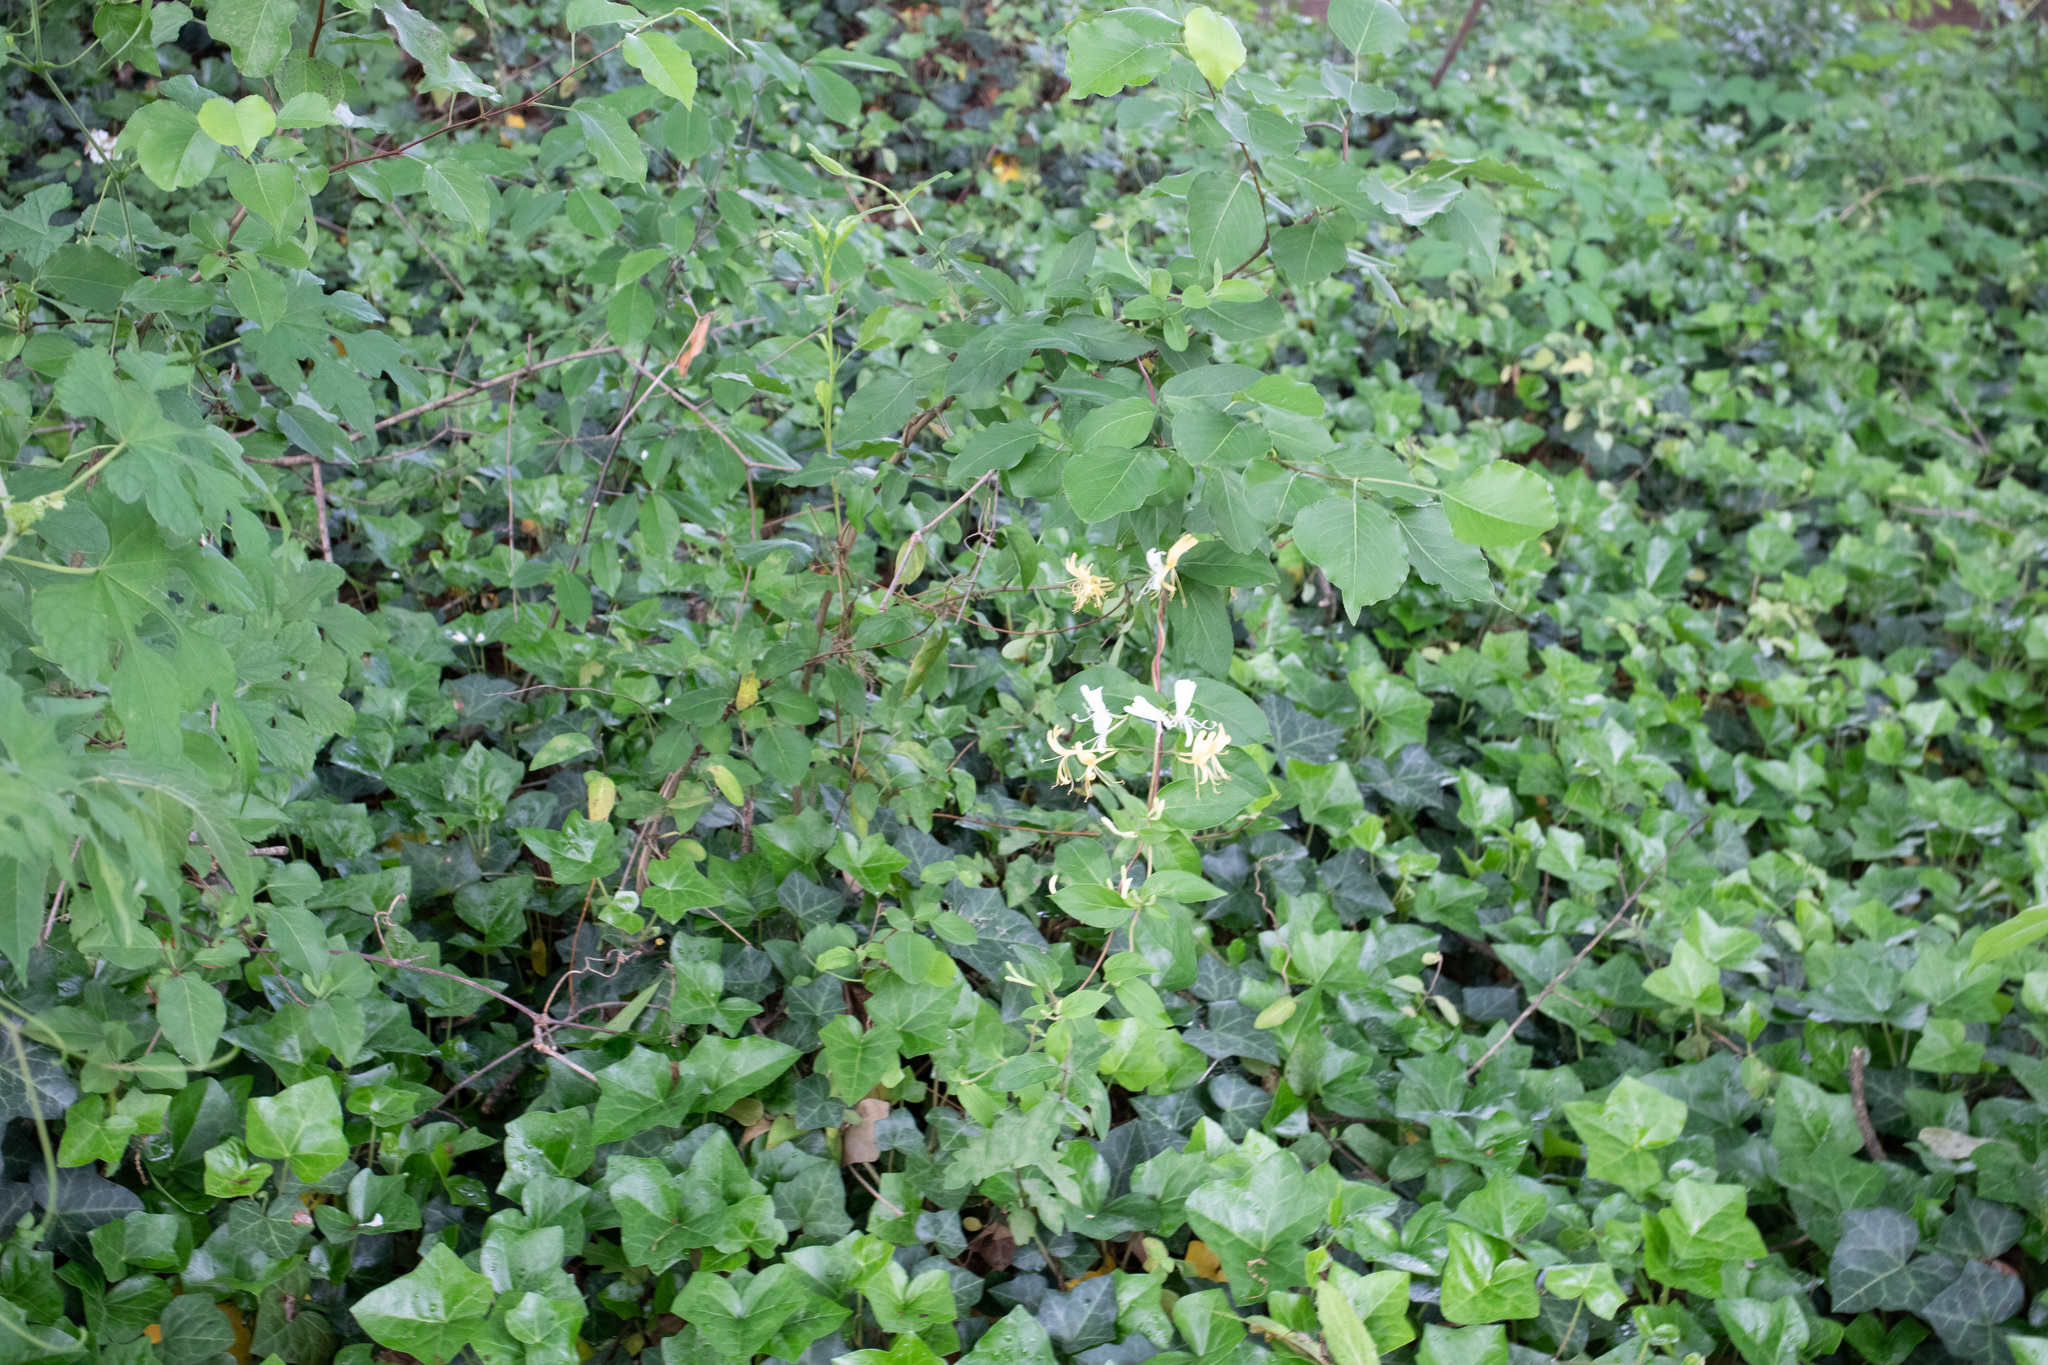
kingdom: Plantae
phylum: Tracheophyta
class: Magnoliopsida
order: Dipsacales
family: Caprifoliaceae
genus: Lonicera
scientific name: Lonicera japonica
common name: Japanese honeysuckle
